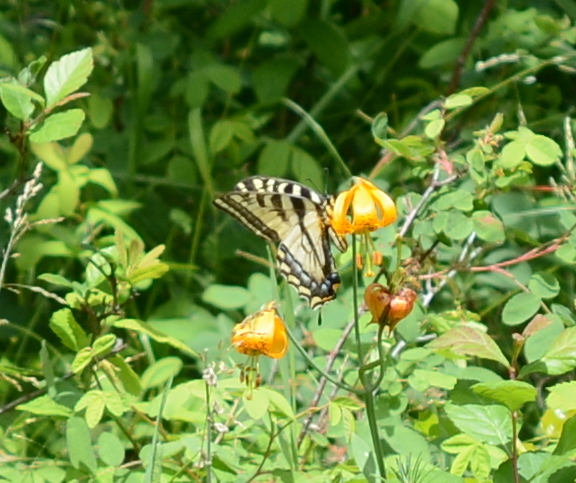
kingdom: Animalia
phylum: Arthropoda
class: Insecta
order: Lepidoptera
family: Papilionidae
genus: Papilio
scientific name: Papilio rutulus
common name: Western tiger swallowtail
